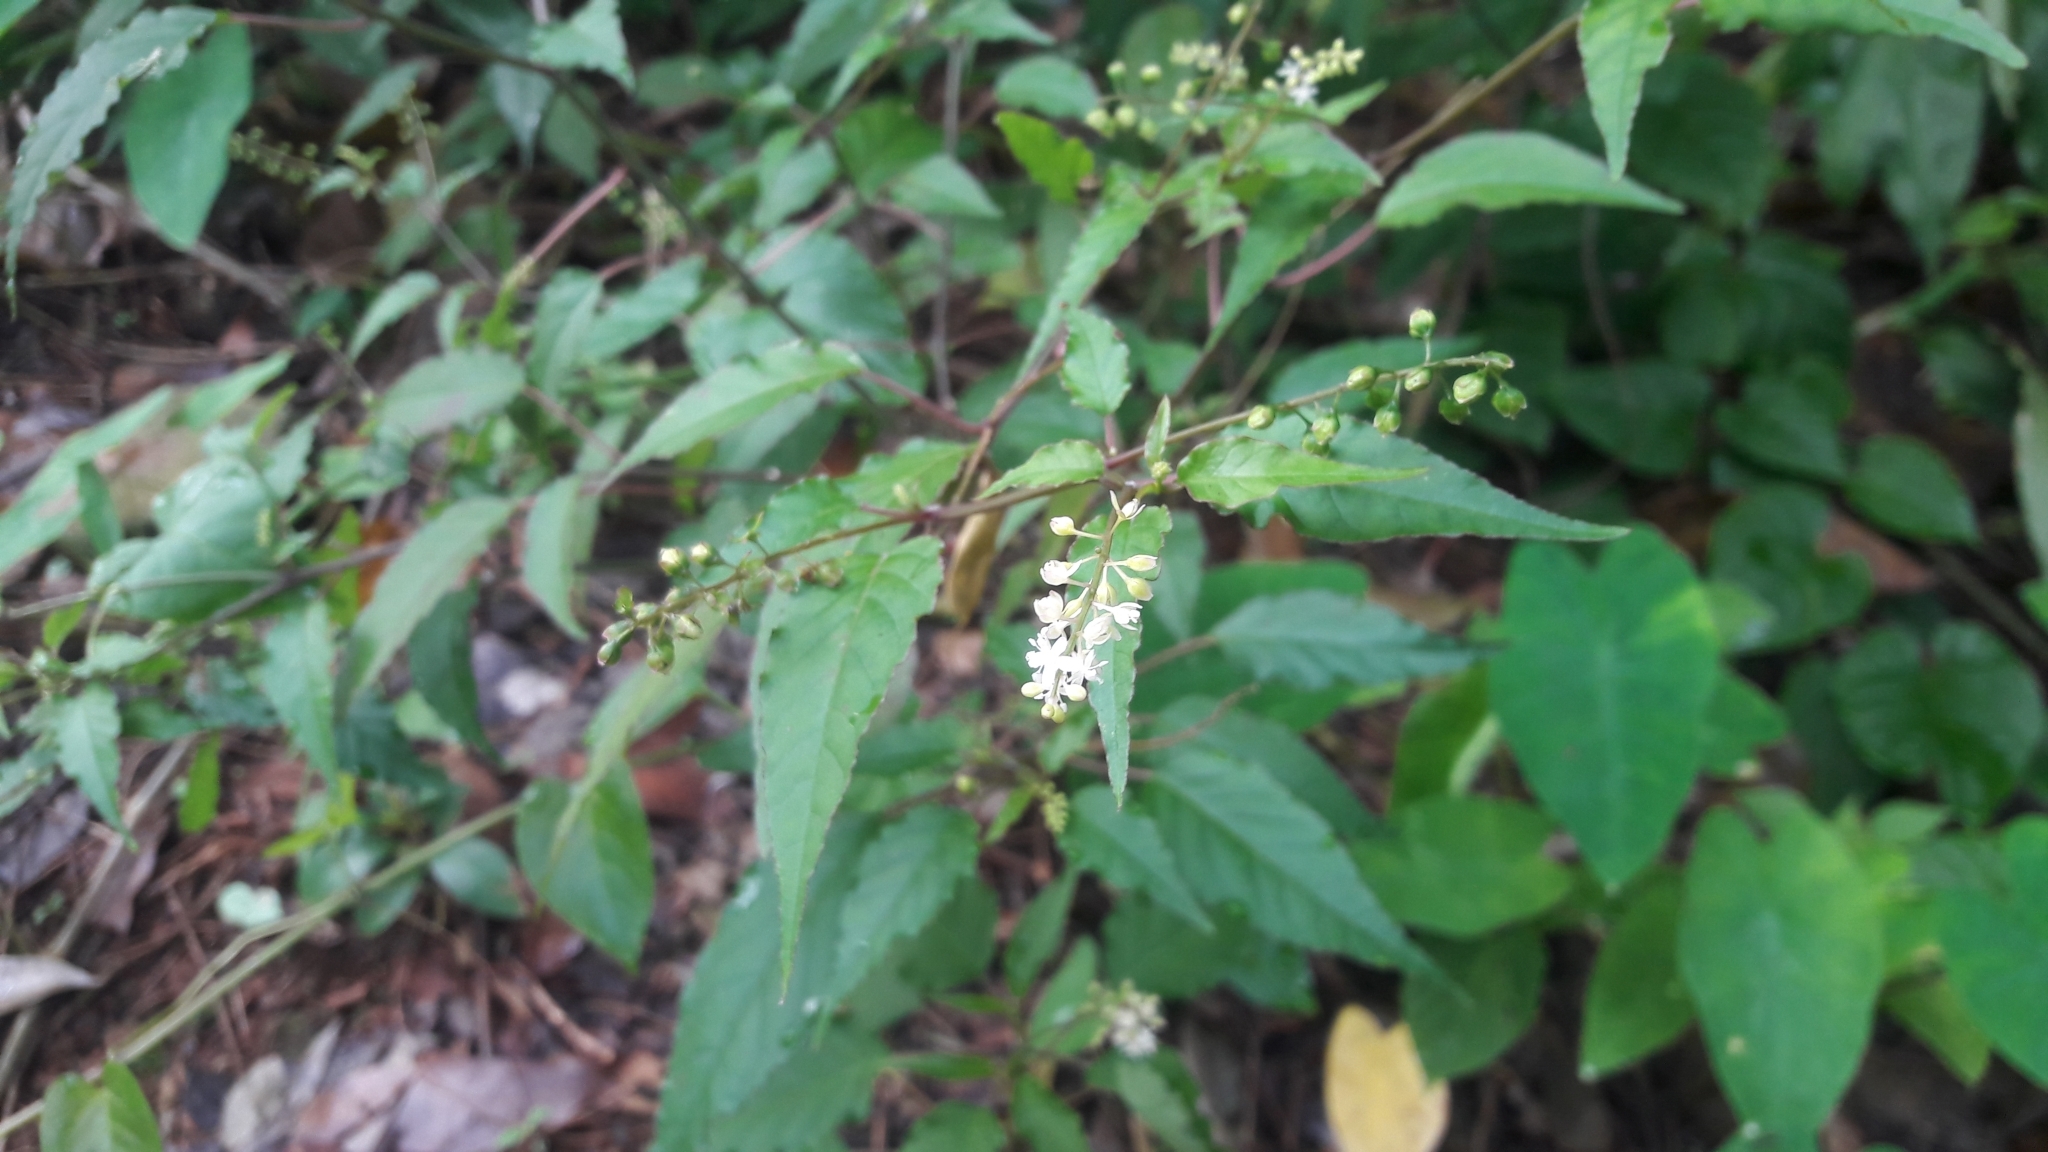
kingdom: Plantae
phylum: Tracheophyta
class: Magnoliopsida
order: Caryophyllales
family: Phytolaccaceae
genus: Rivina
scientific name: Rivina humilis
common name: Rougeplant
